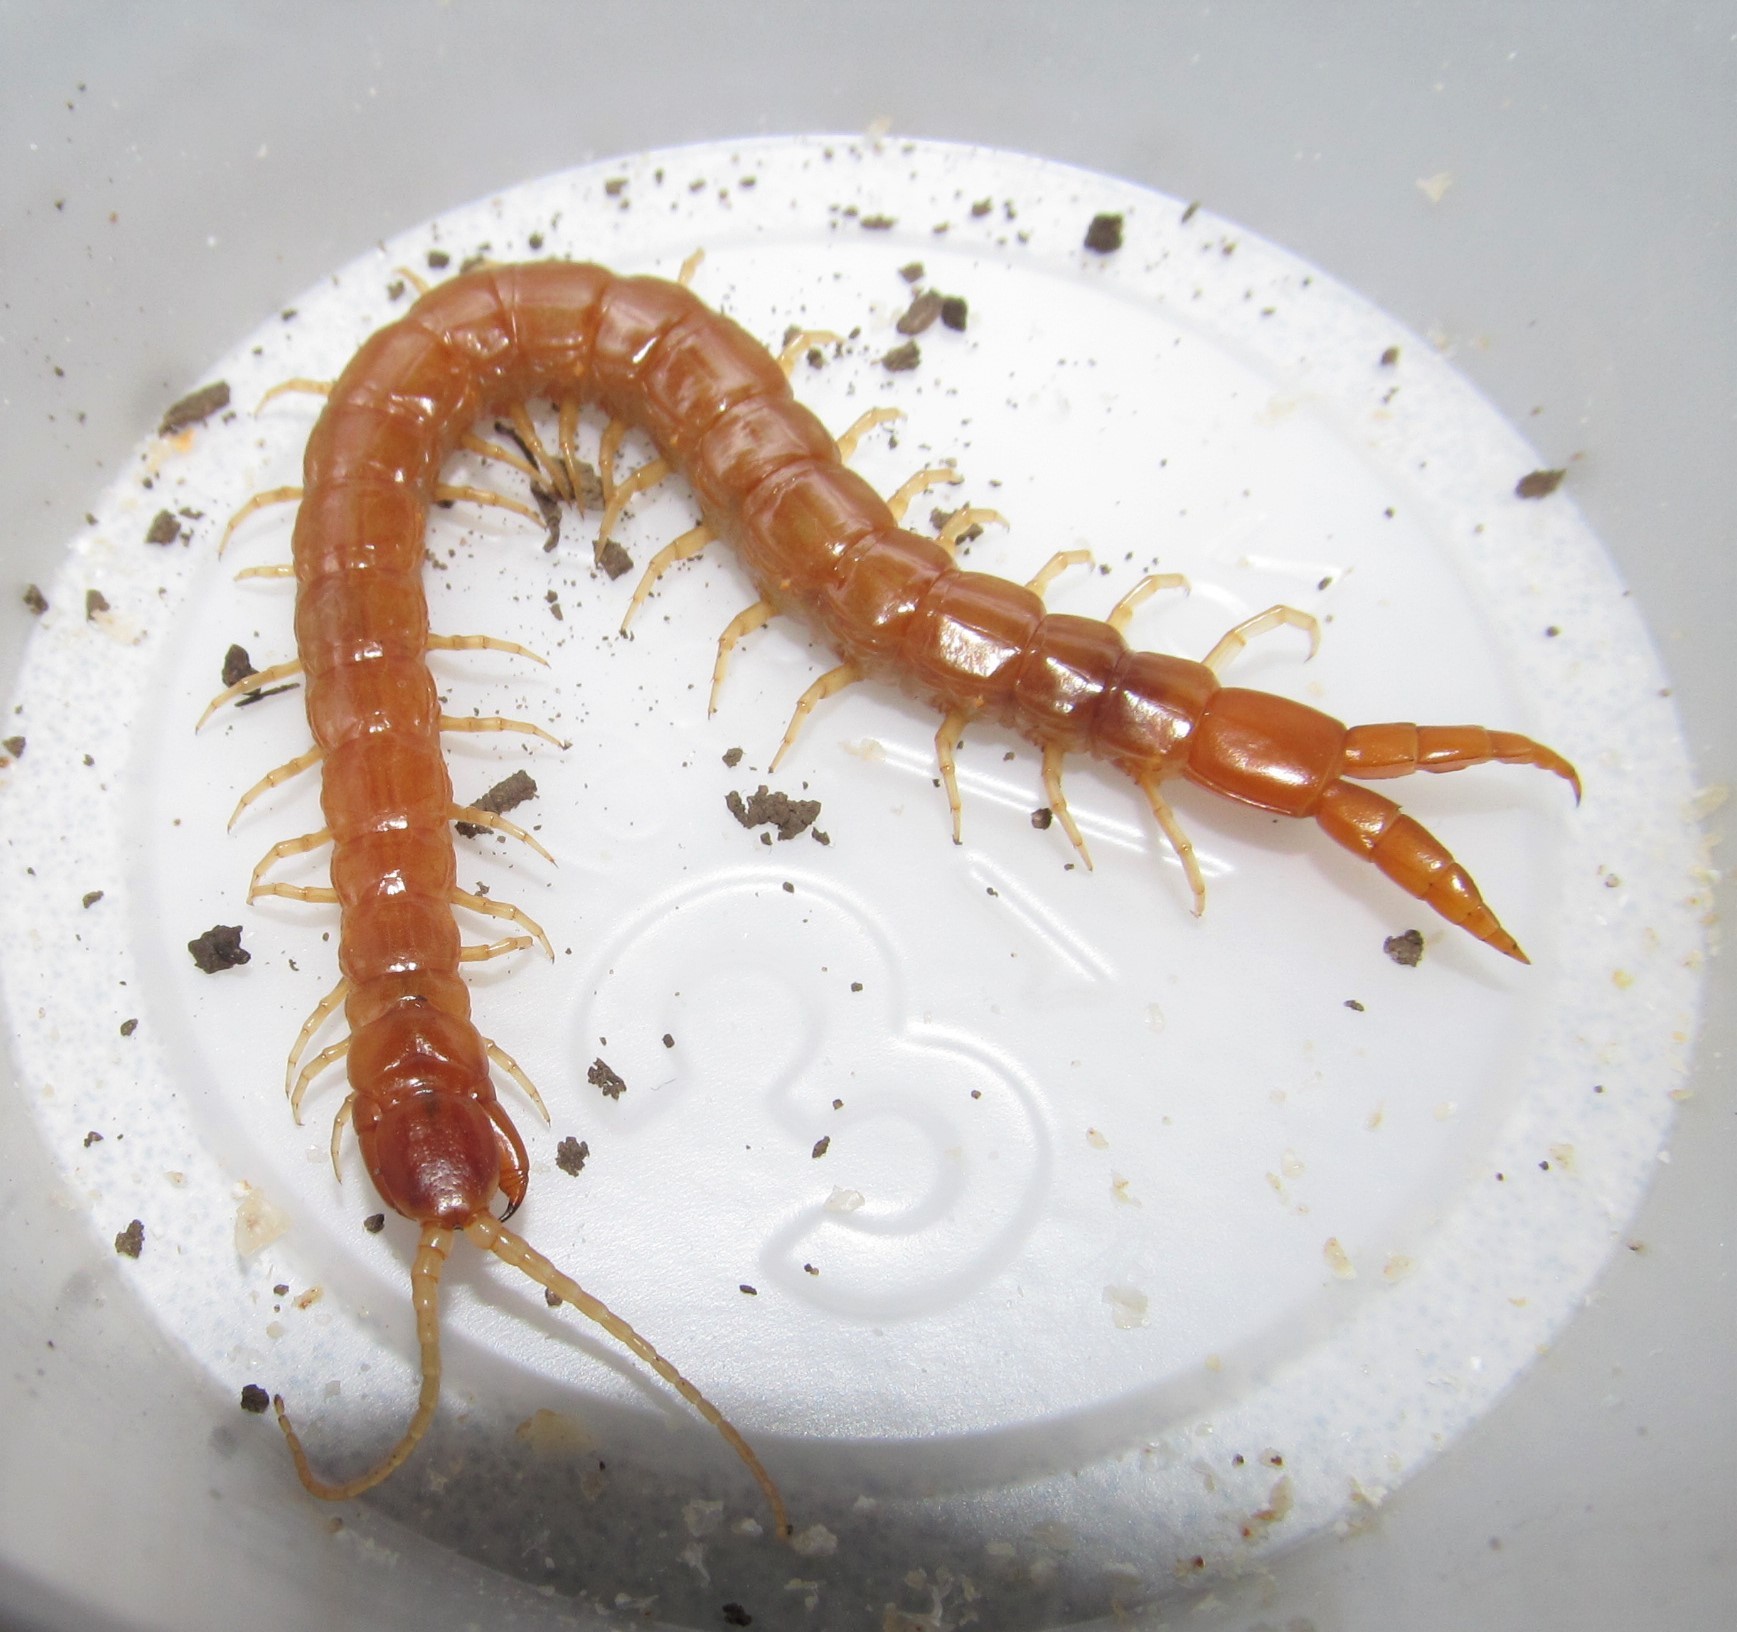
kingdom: Animalia
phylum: Arthropoda
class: Chilopoda
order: Scolopendromorpha
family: Cryptopidae
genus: Theatops
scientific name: Theatops spinicaudus
